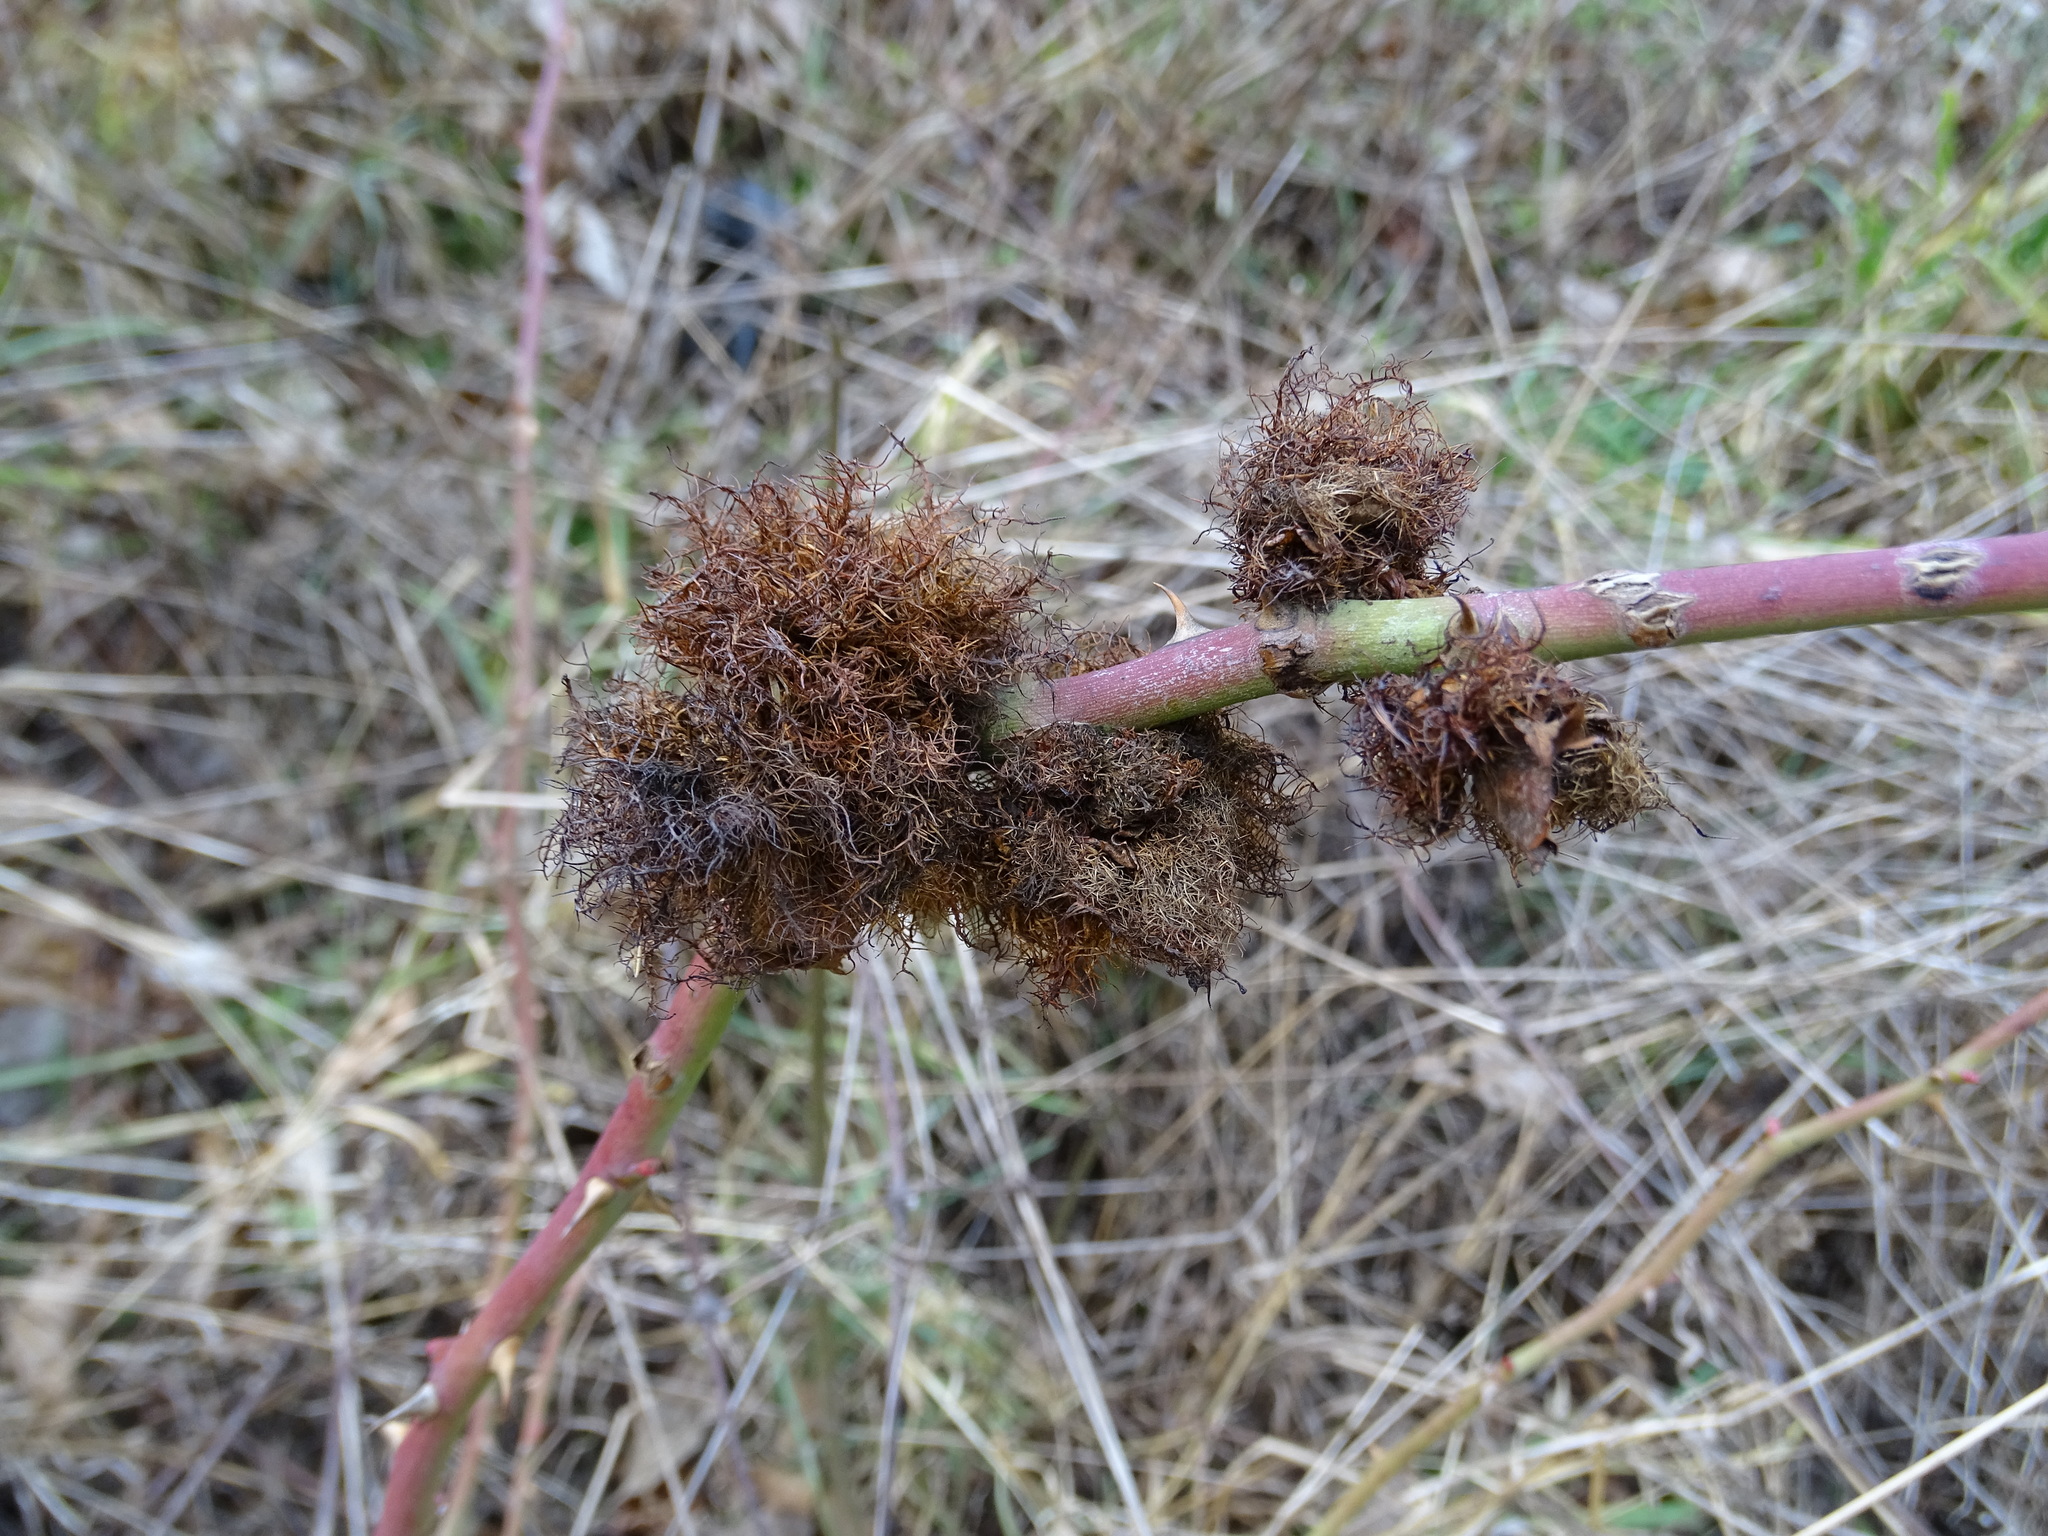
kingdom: Animalia
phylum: Arthropoda
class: Insecta
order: Hymenoptera
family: Cynipidae
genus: Diplolepis
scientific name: Diplolepis rosae
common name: Bedeguar gall
